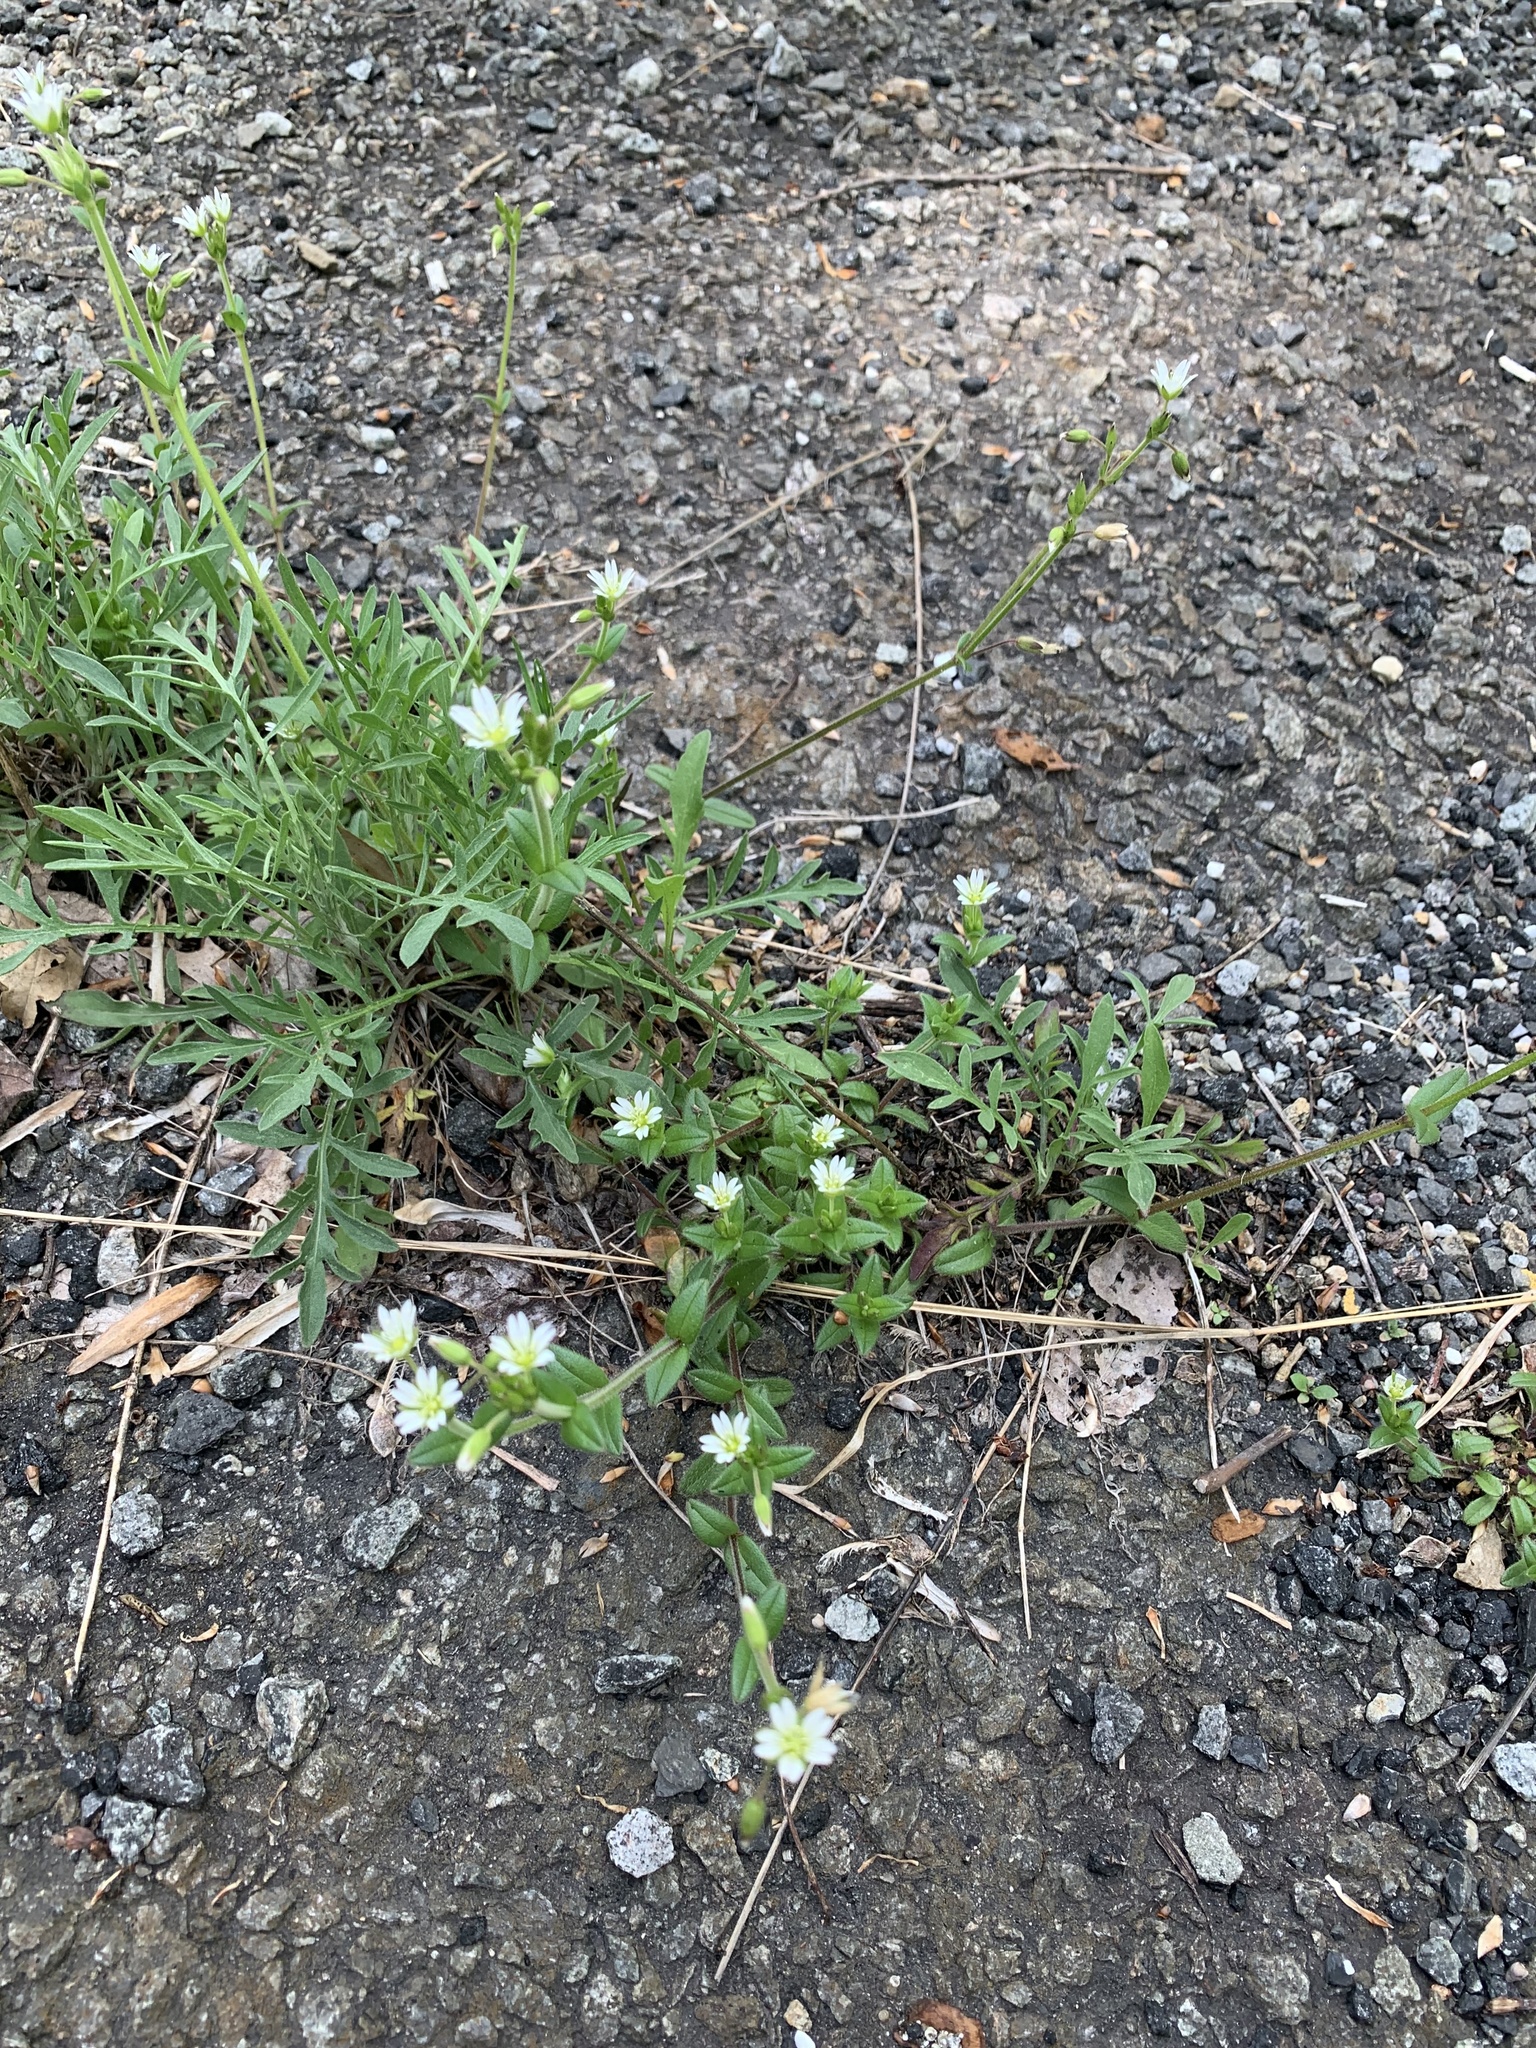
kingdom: Plantae
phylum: Tracheophyta
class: Magnoliopsida
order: Caryophyllales
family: Caryophyllaceae
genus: Cerastium
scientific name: Cerastium fontanum
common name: Common mouse-ear
